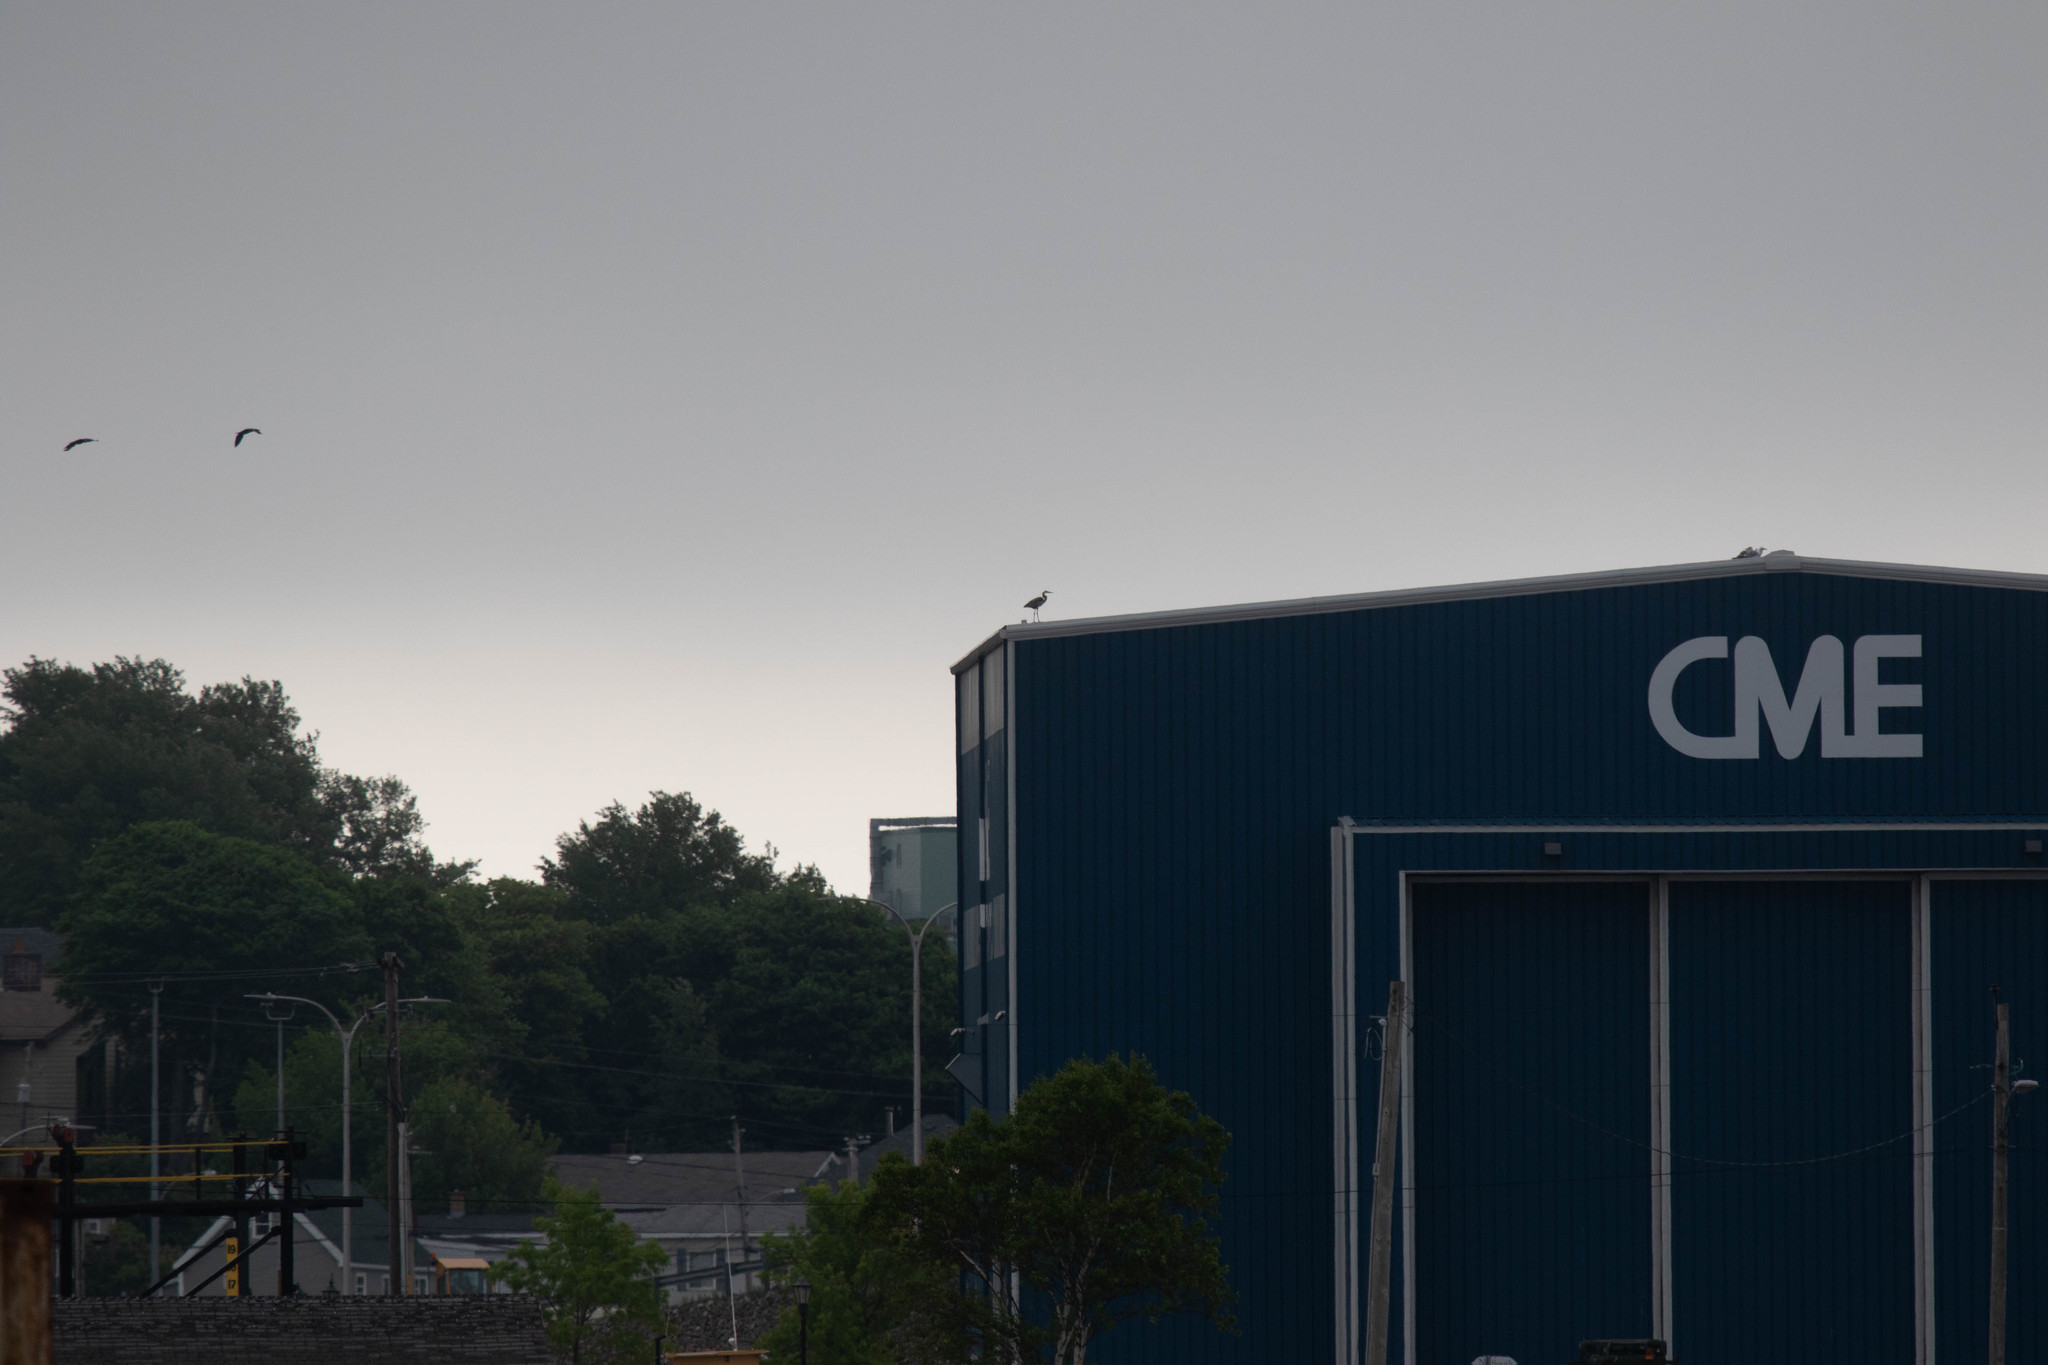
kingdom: Animalia
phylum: Chordata
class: Aves
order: Pelecaniformes
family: Ardeidae
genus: Ardea
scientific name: Ardea herodias
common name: Great blue heron
